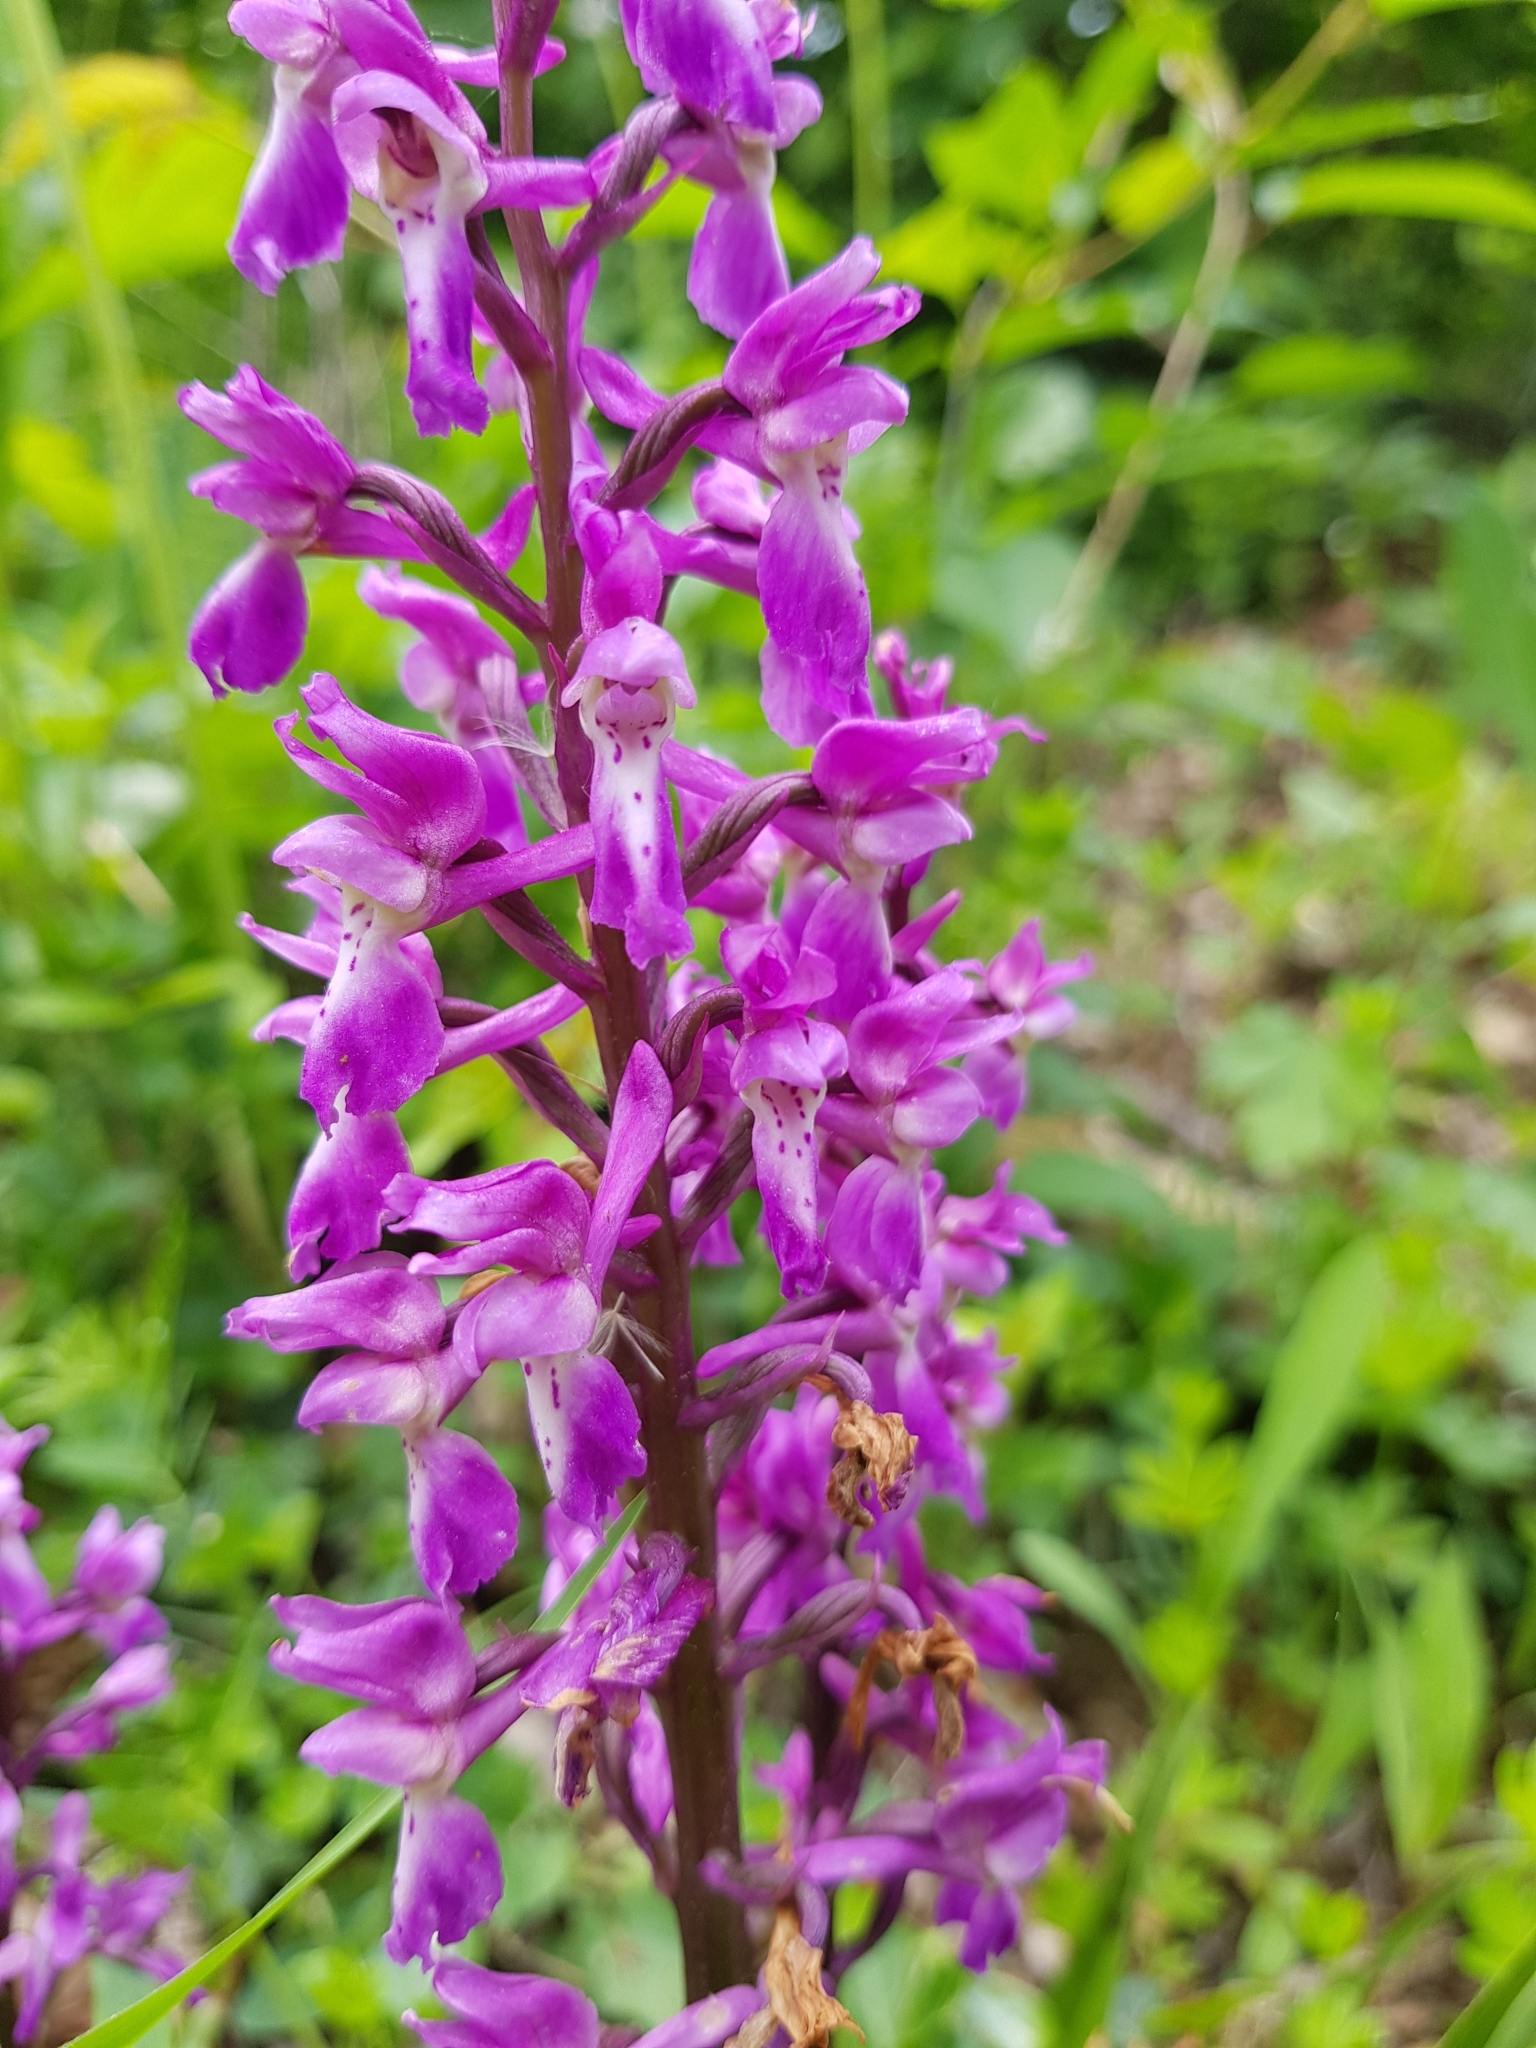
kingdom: Plantae
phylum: Tracheophyta
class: Liliopsida
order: Asparagales
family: Orchidaceae
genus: Orchis
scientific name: Orchis mascula
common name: Early-purple orchid
